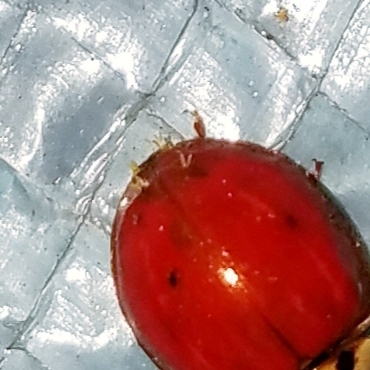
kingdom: Fungi
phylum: Ascomycota
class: Laboulbeniomycetes
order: Laboulbeniales
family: Laboulbeniaceae
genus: Hesperomyces
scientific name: Hesperomyces harmoniae
